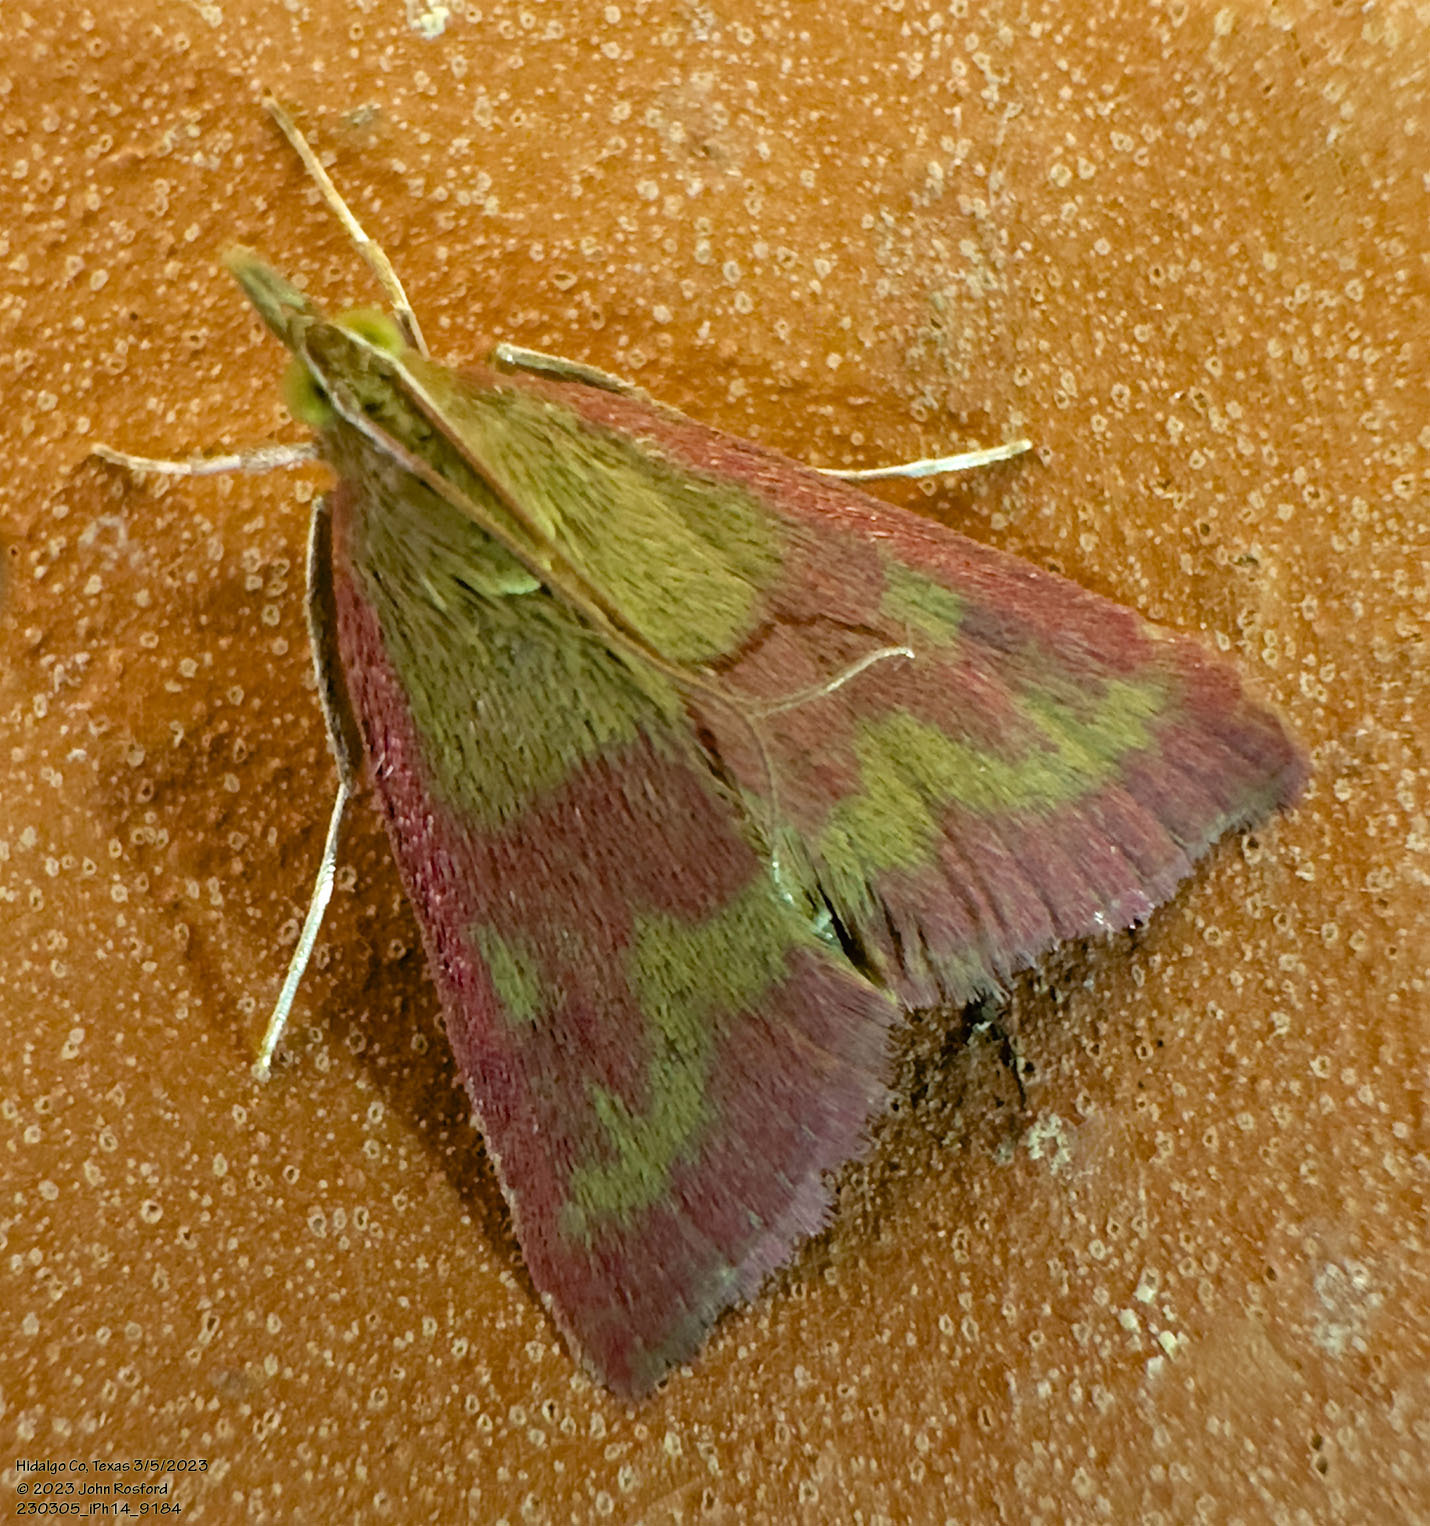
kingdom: Animalia
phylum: Arthropoda
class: Insecta
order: Lepidoptera
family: Crambidae
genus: Pyrausta
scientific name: Pyrausta laticlavia
